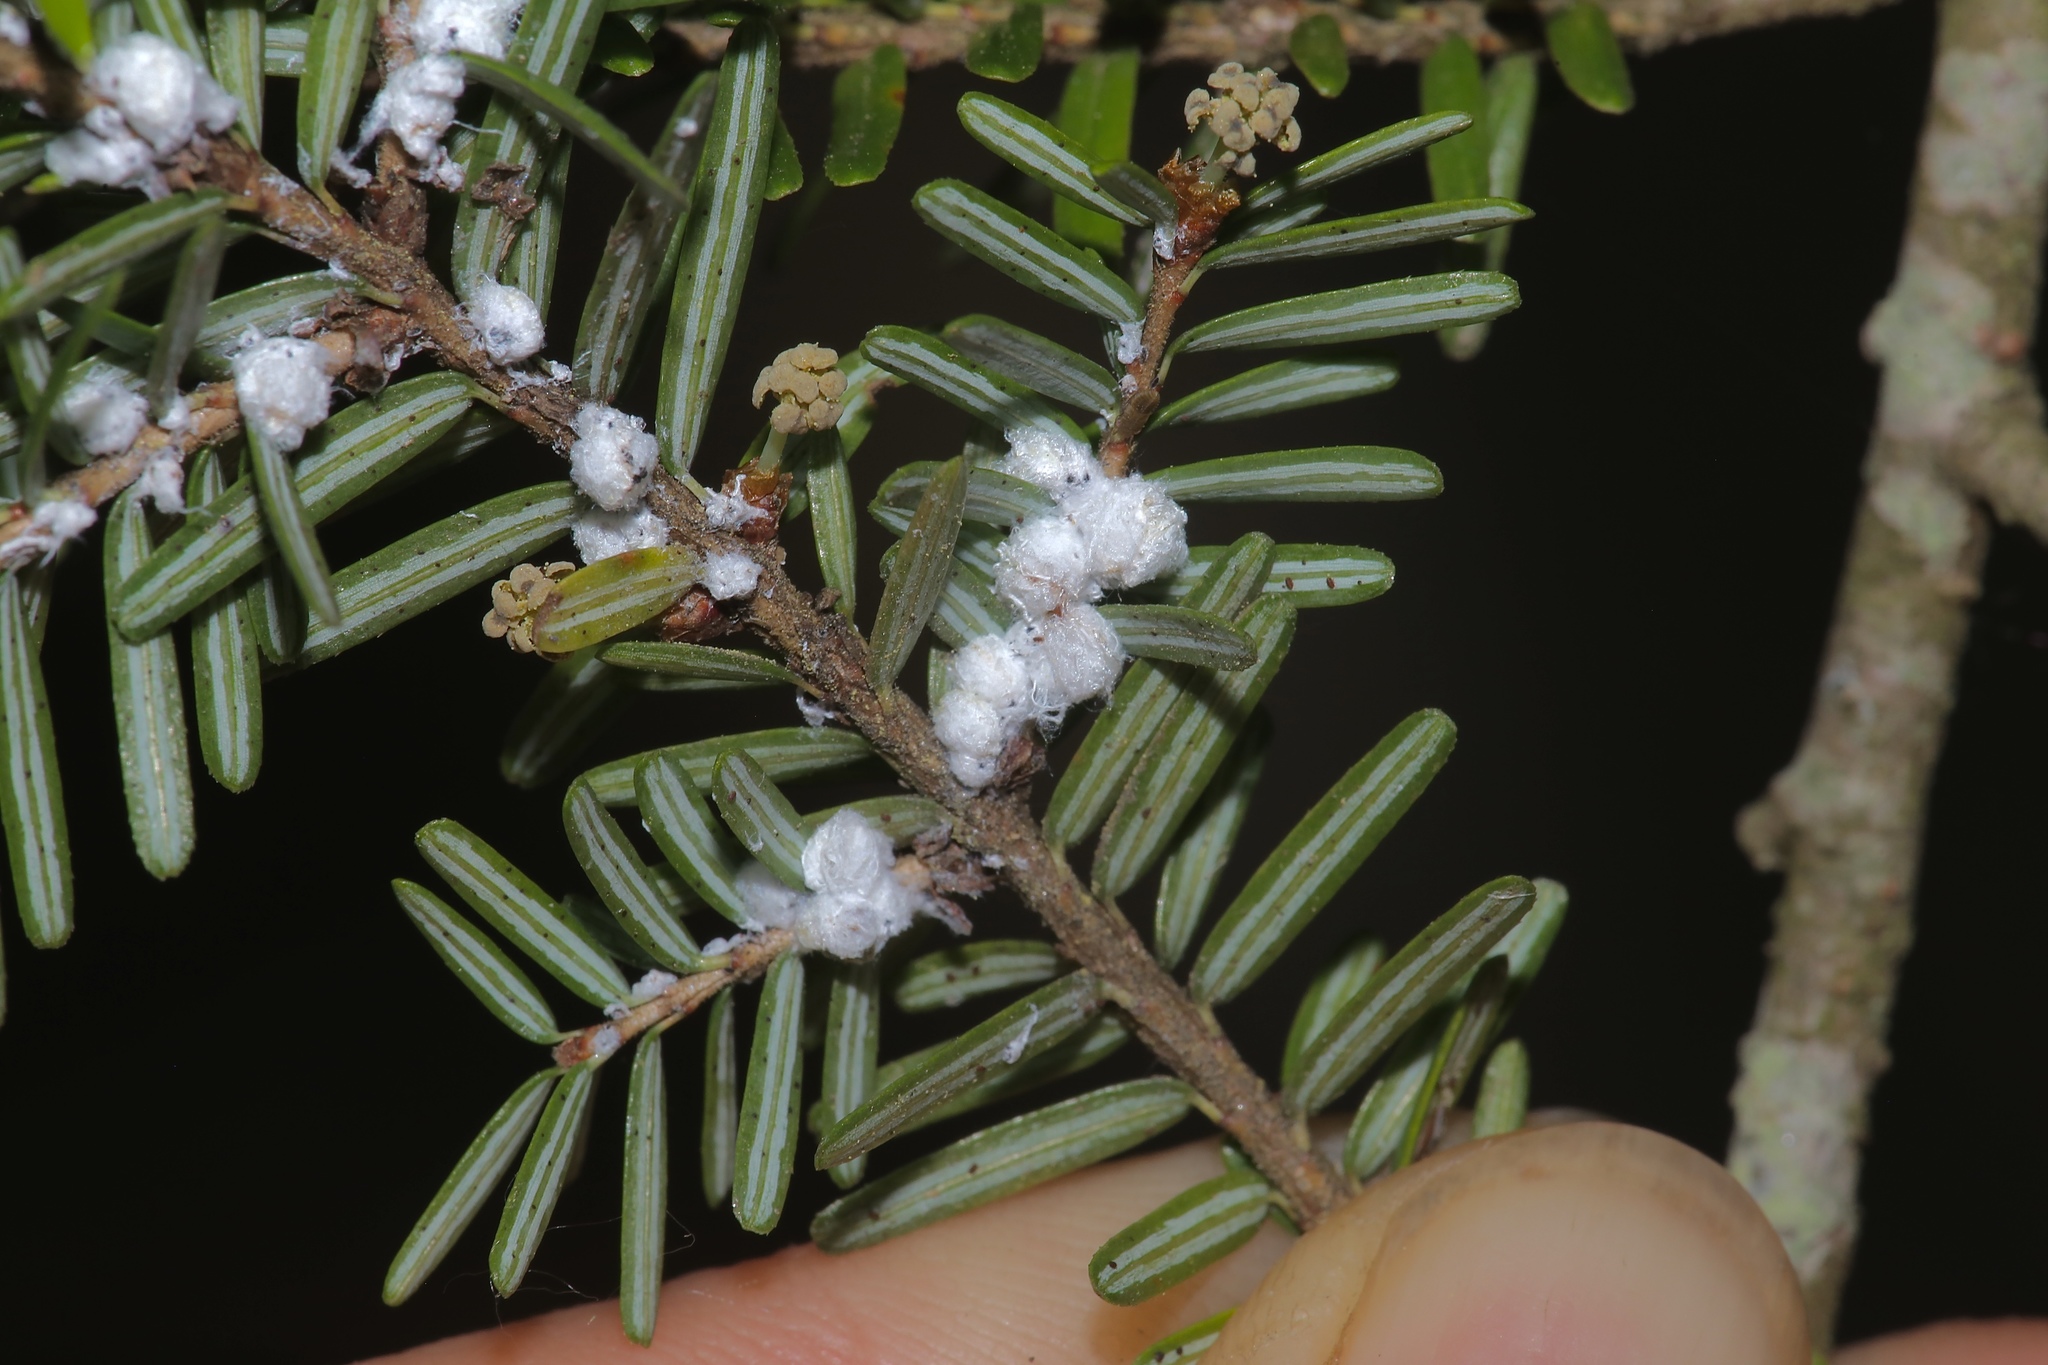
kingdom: Animalia
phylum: Arthropoda
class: Insecta
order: Hemiptera
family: Adelgidae
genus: Adelges
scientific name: Adelges tsugae
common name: Hemlock woolly adelgid
